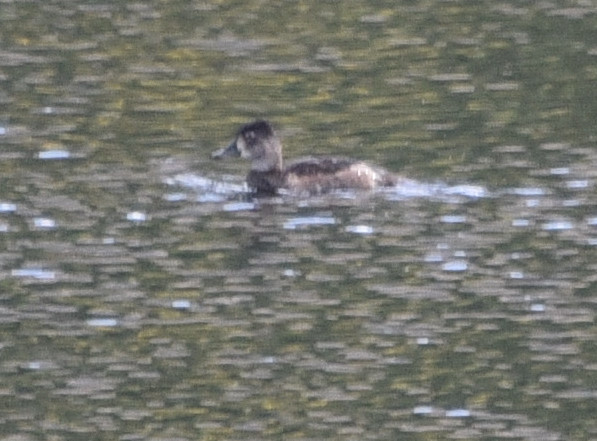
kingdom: Animalia
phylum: Chordata
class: Aves
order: Anseriformes
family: Anatidae
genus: Aythya
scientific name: Aythya collaris
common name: Ring-necked duck
